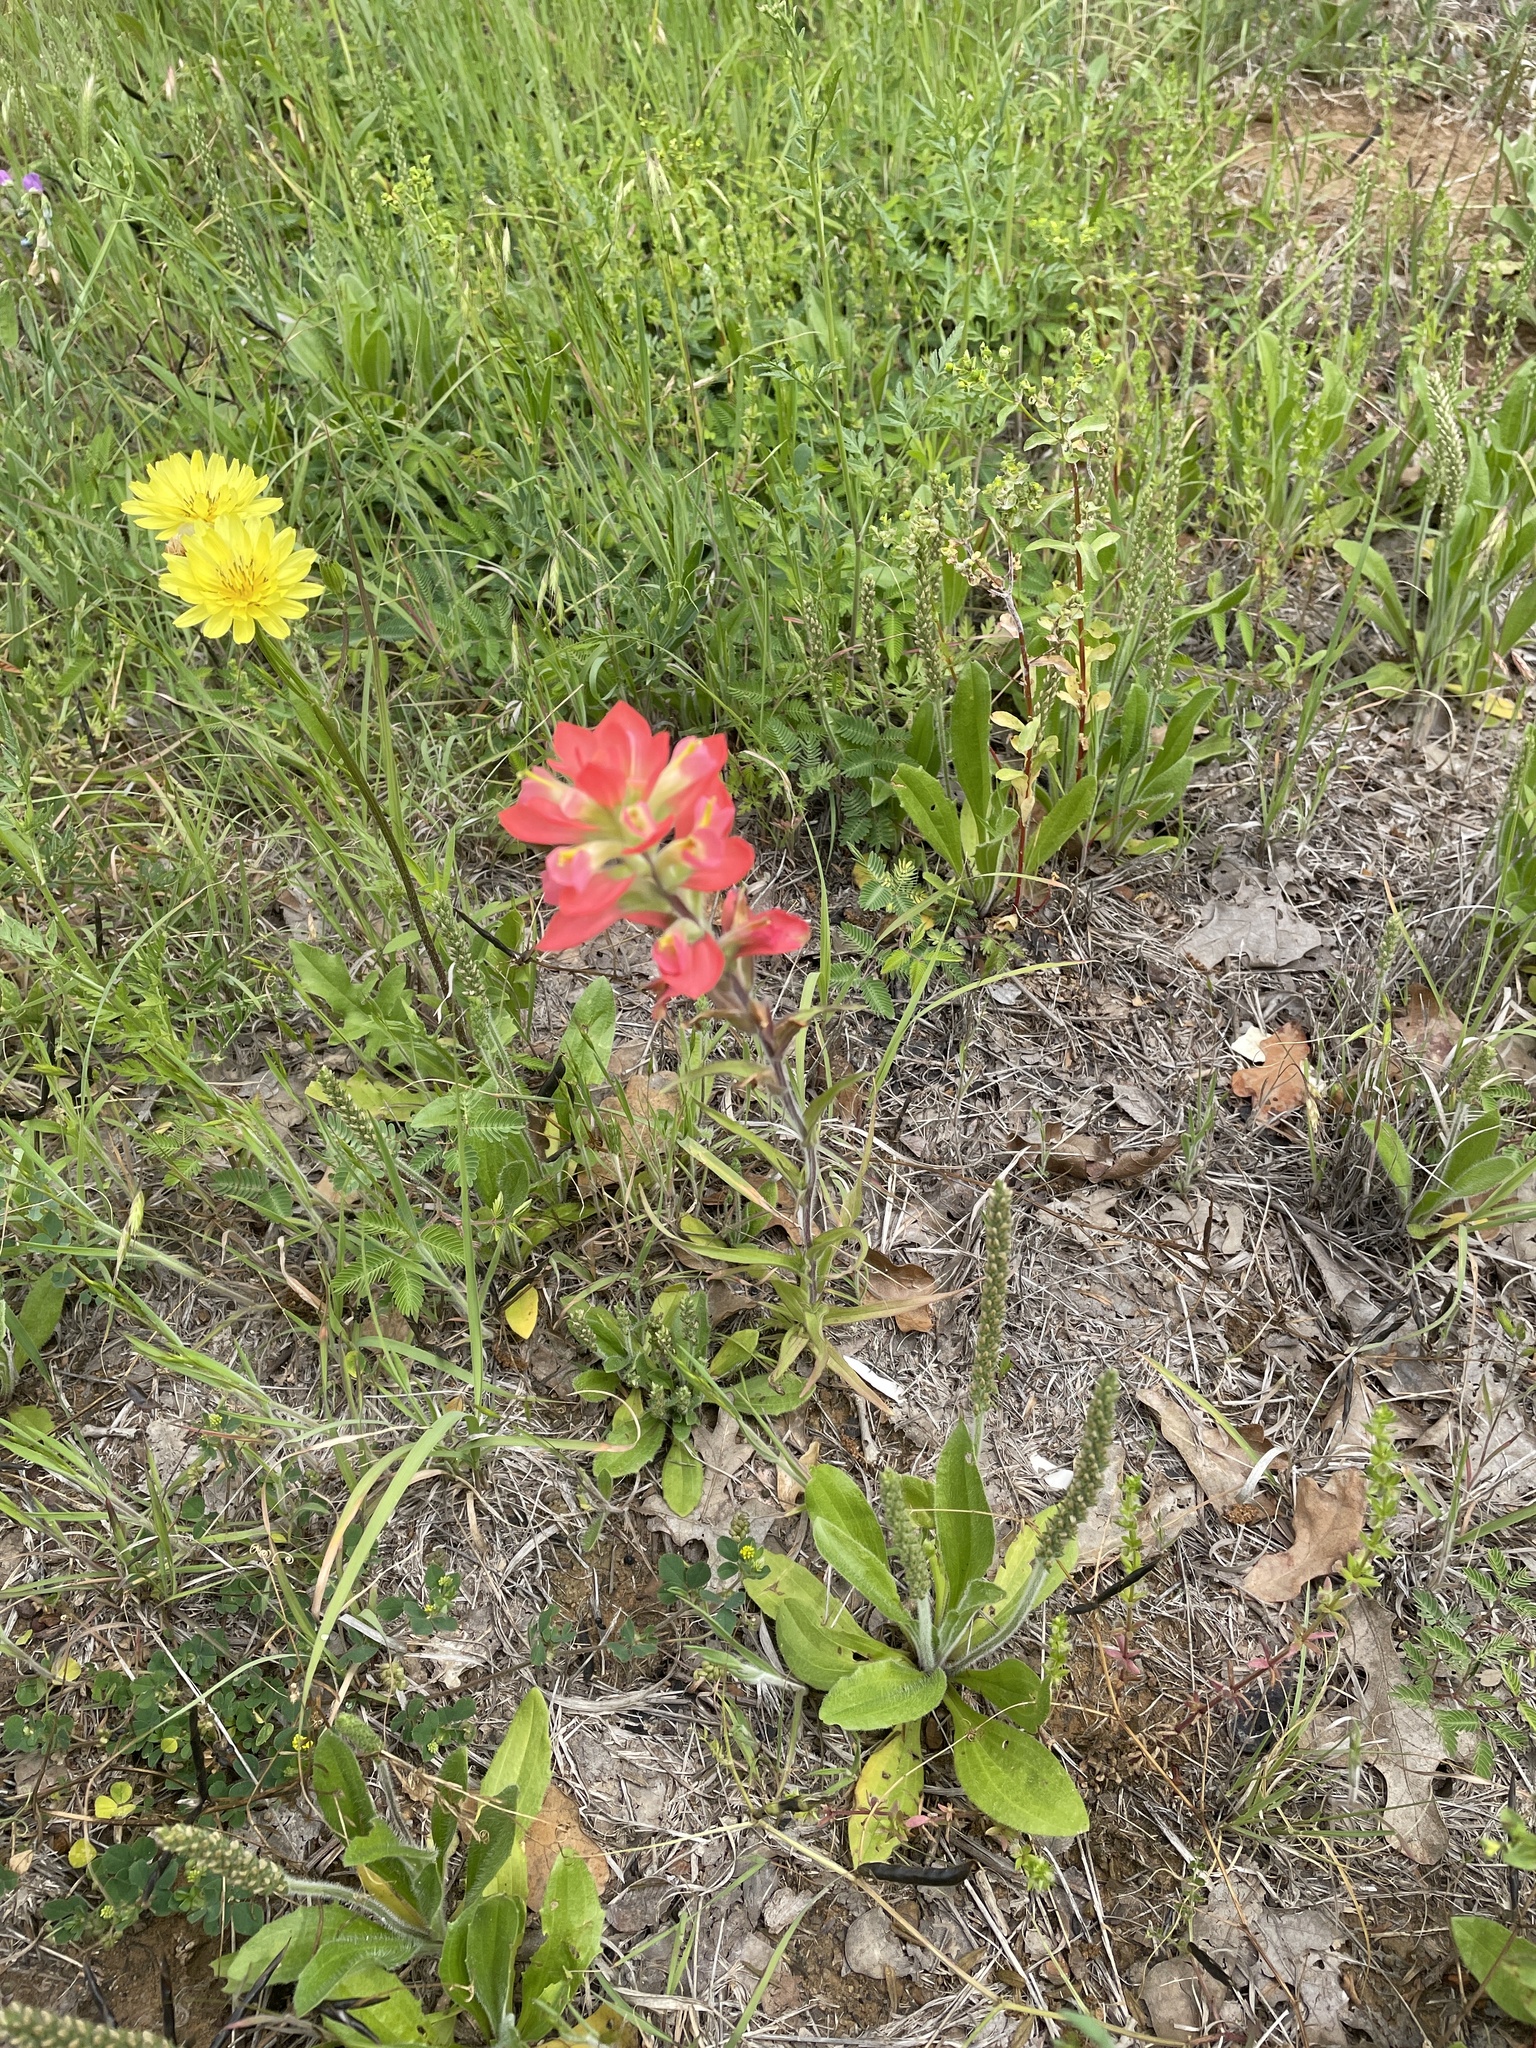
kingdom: Plantae
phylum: Tracheophyta
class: Magnoliopsida
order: Lamiales
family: Orobanchaceae
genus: Castilleja
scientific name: Castilleja indivisa
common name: Texas paintbrush
